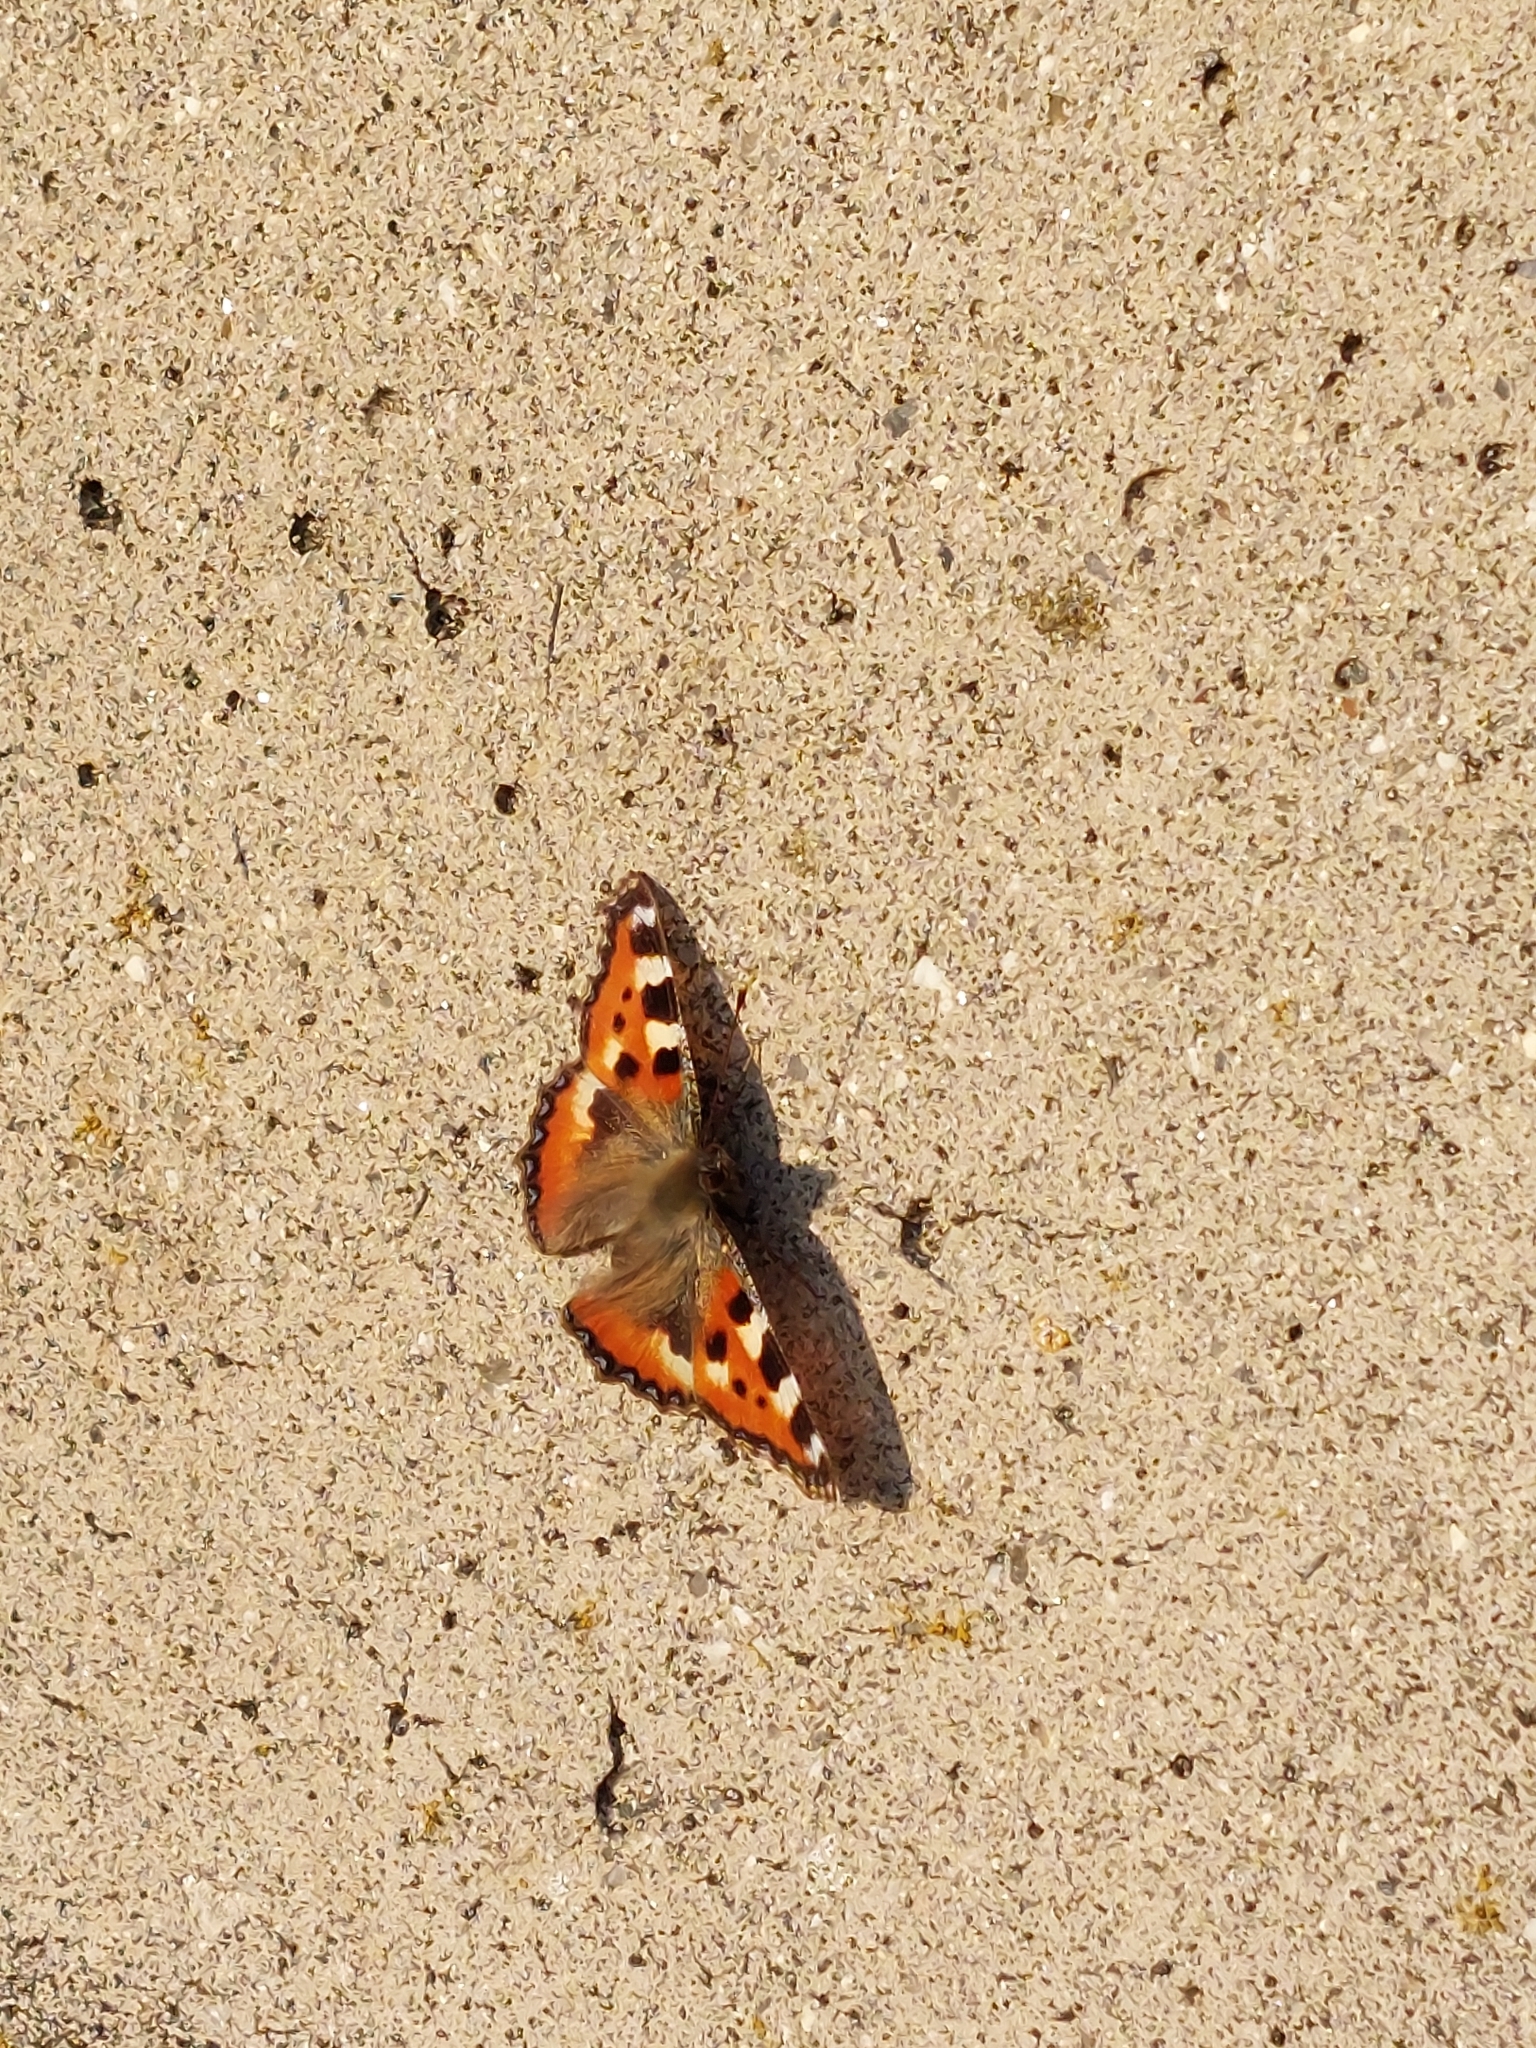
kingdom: Animalia
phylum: Arthropoda
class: Insecta
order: Lepidoptera
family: Nymphalidae
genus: Aglais
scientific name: Aglais urticae
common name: Small tortoiseshell
